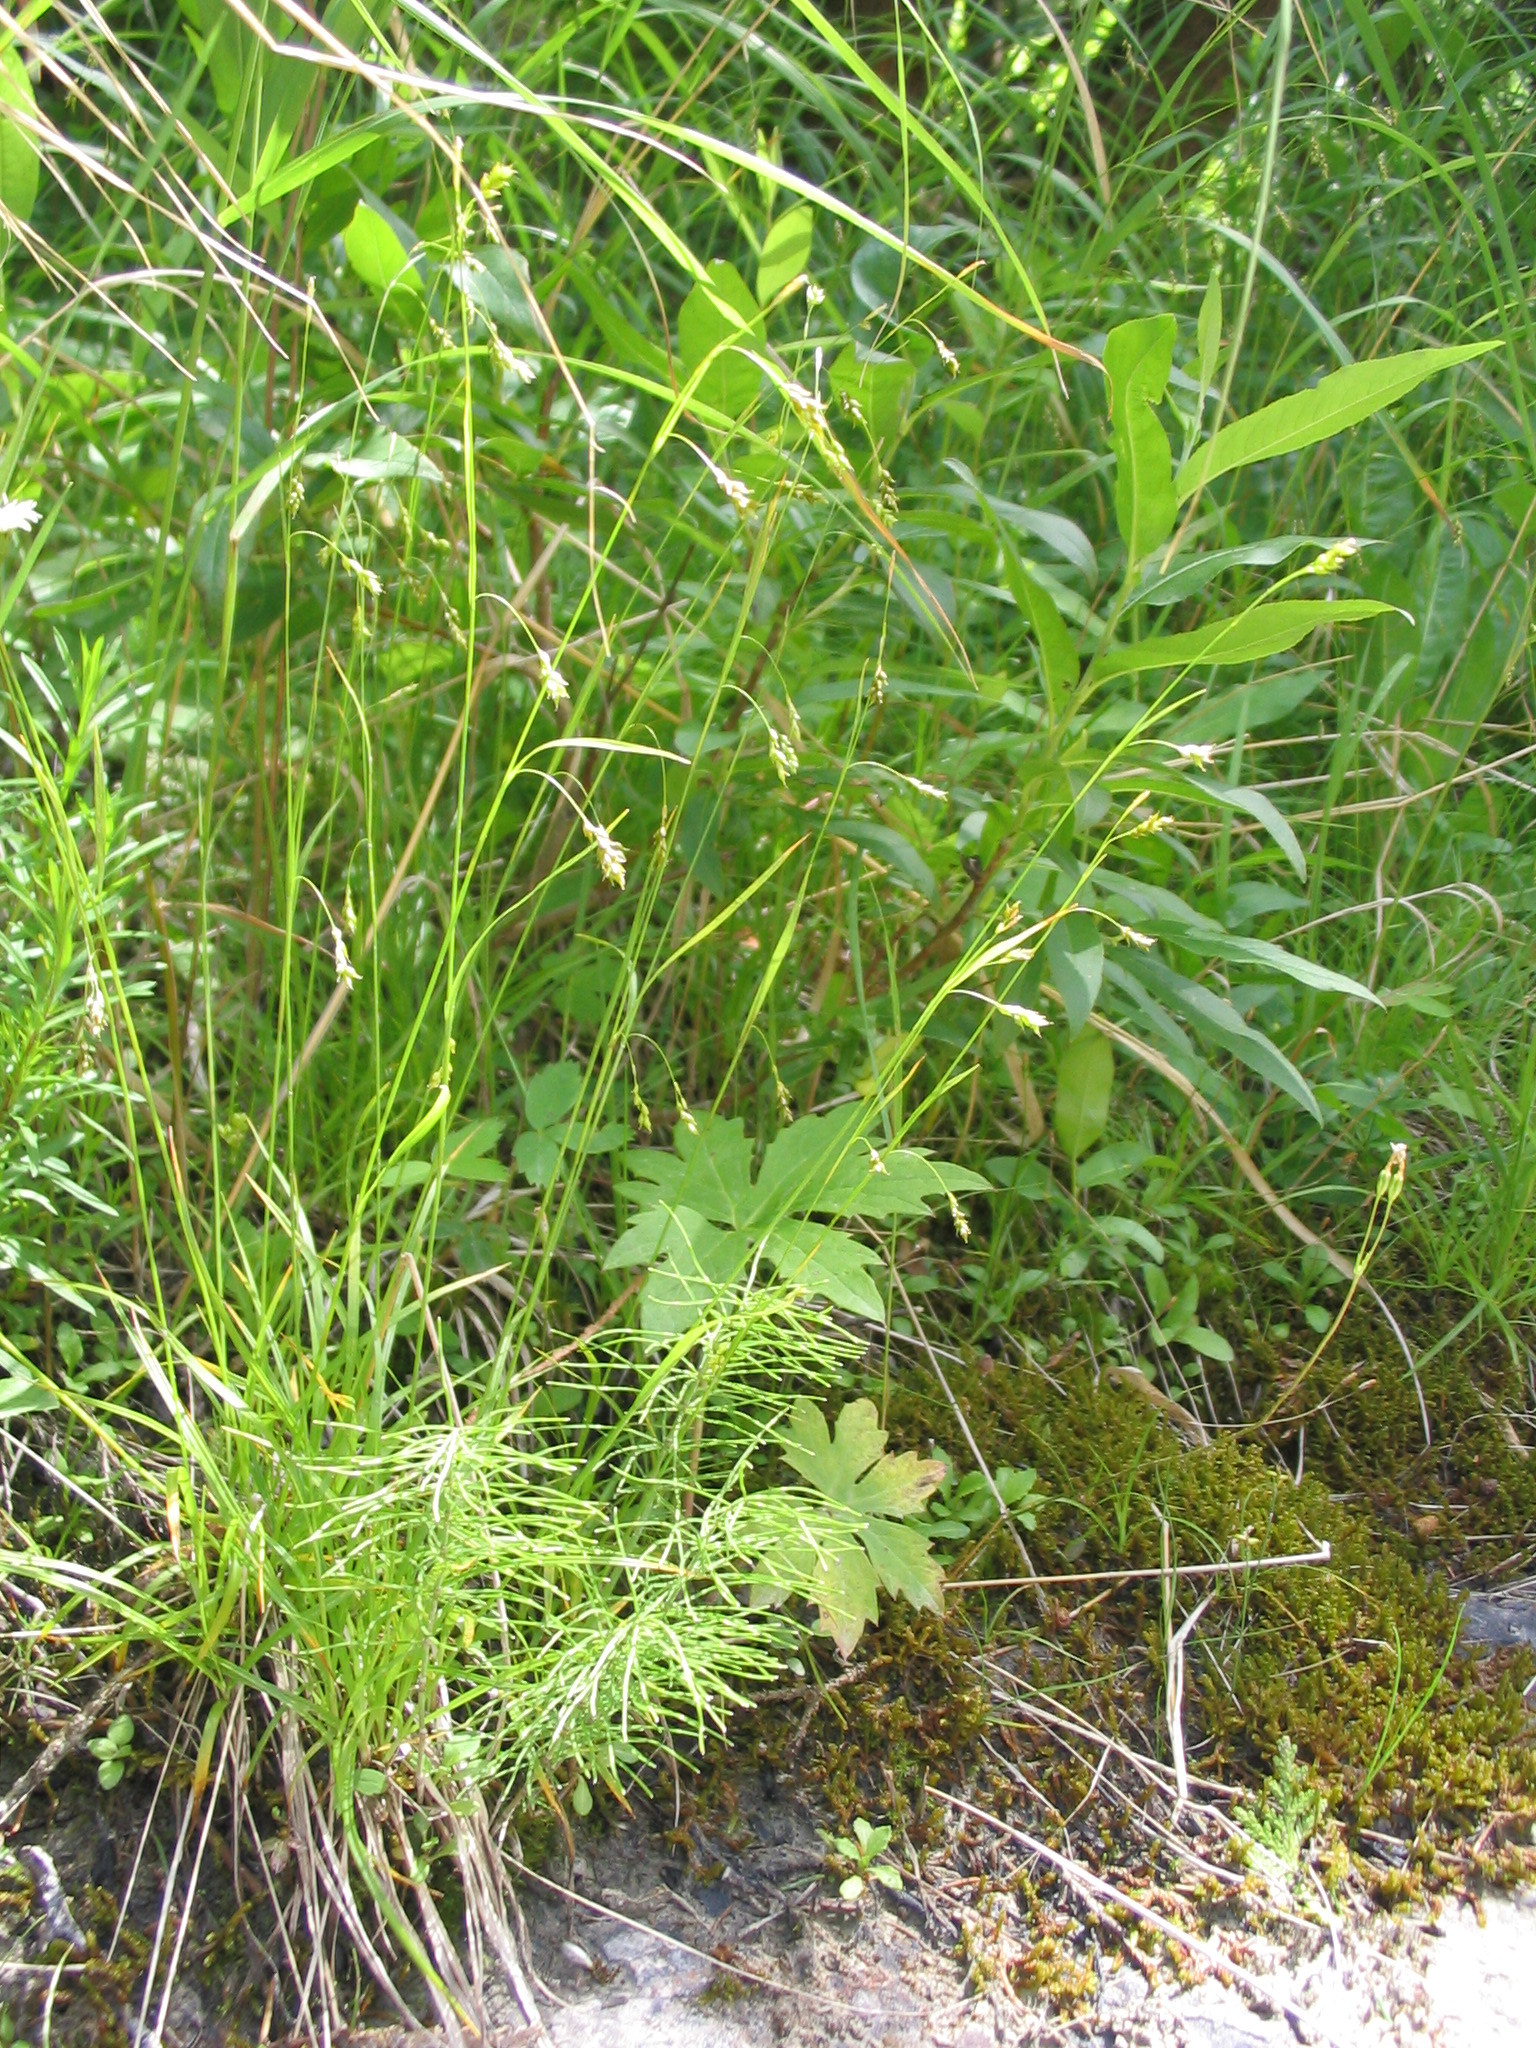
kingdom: Plantae
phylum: Tracheophyta
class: Liliopsida
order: Poales
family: Cyperaceae
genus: Carex
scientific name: Carex capillaris
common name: Hair sedge
